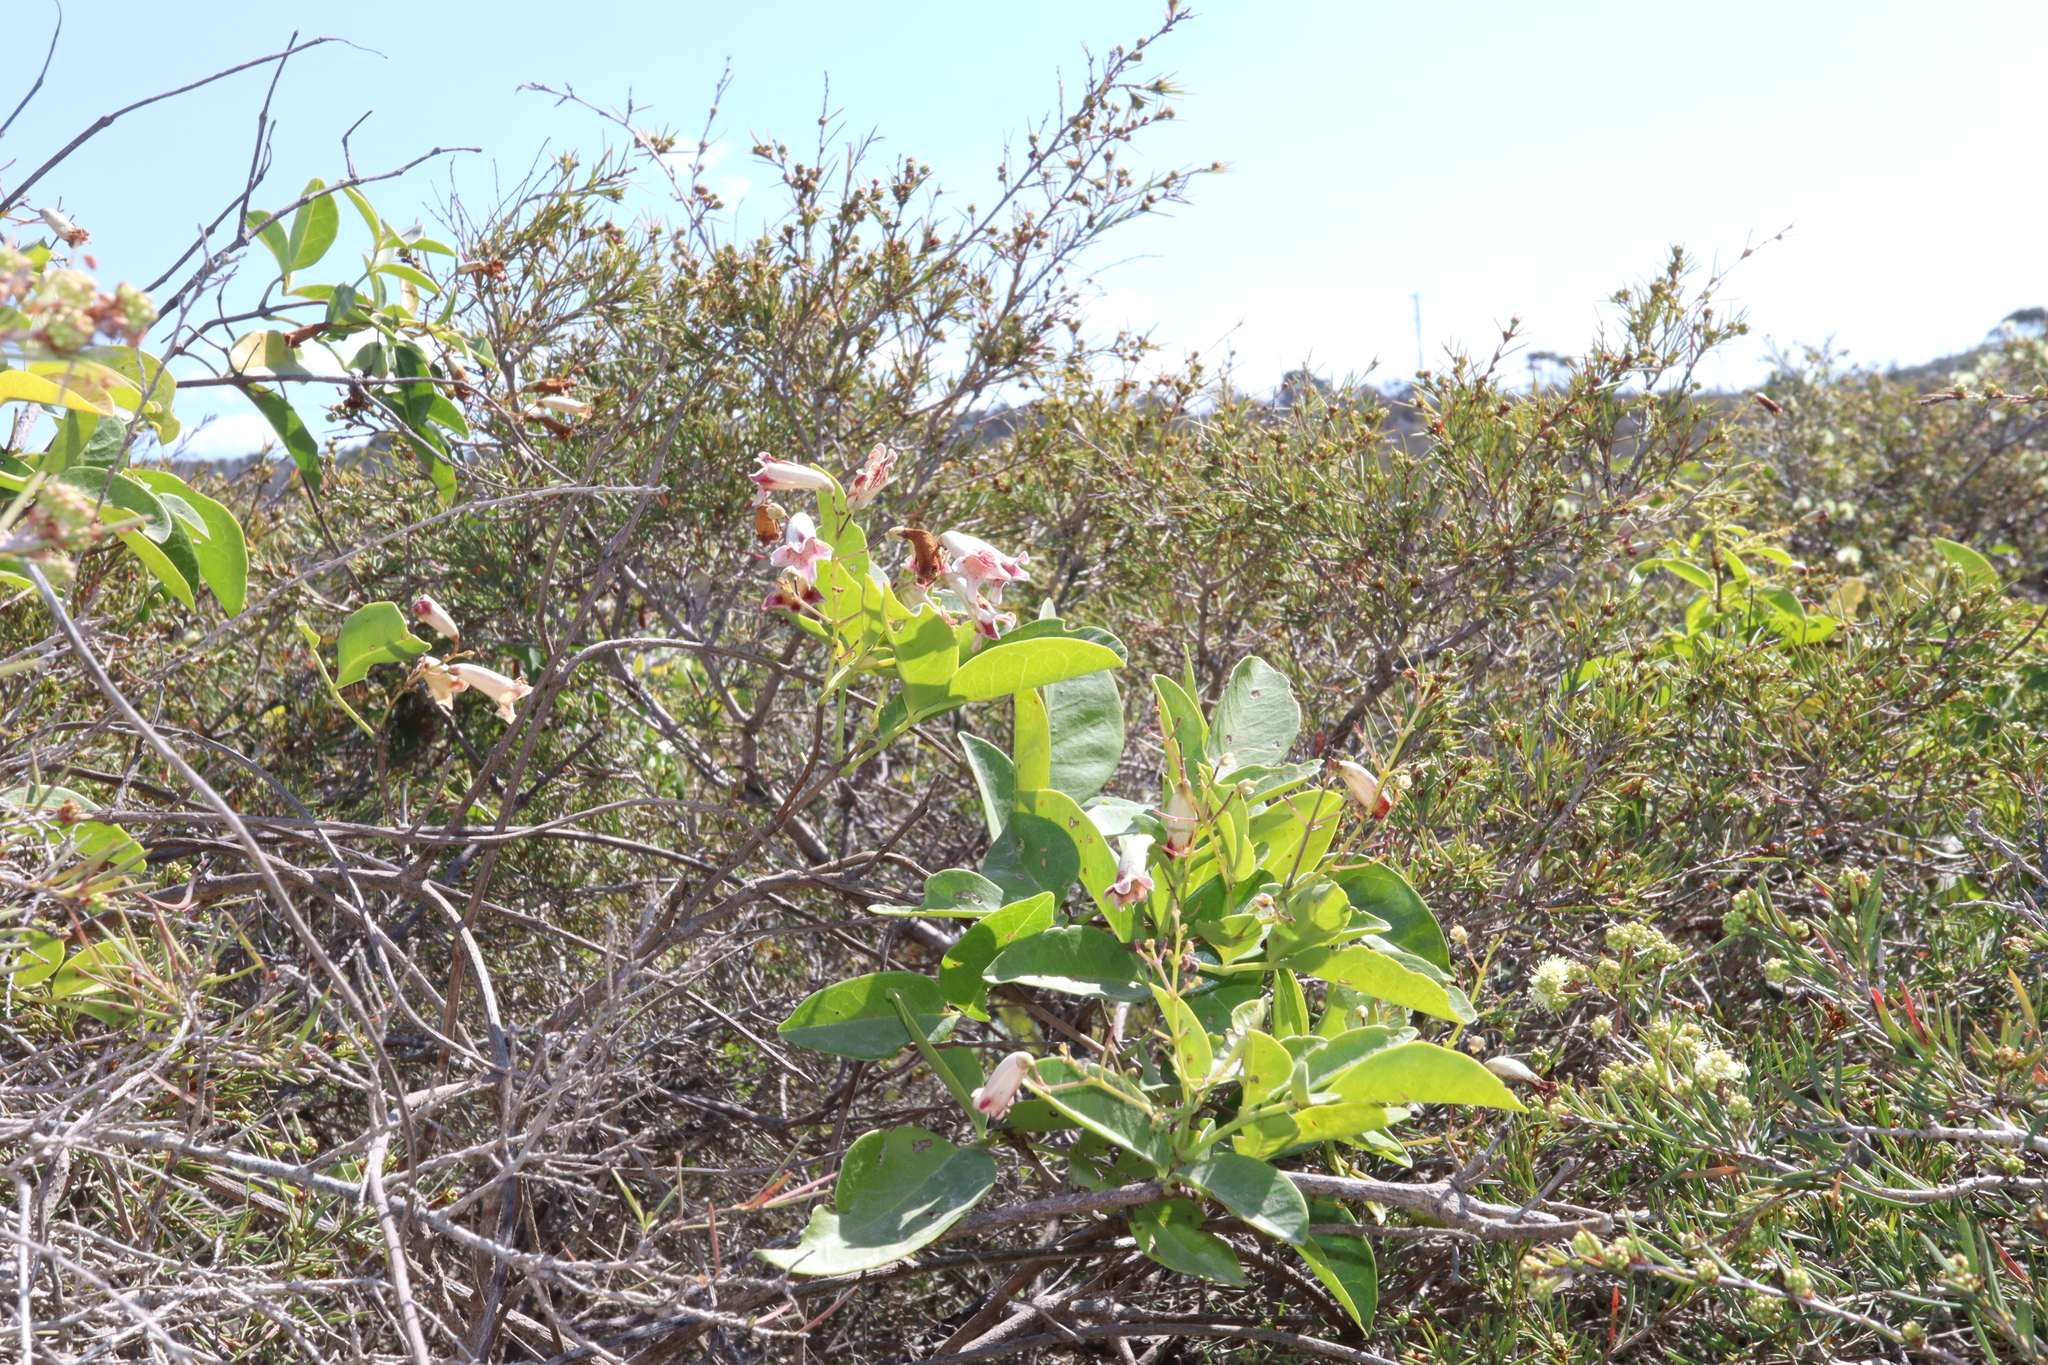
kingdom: Plantae
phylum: Tracheophyta
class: Magnoliopsida
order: Lamiales
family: Bignoniaceae
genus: Pandorea
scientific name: Pandorea pandorana
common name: Wonga-wonga-vine
